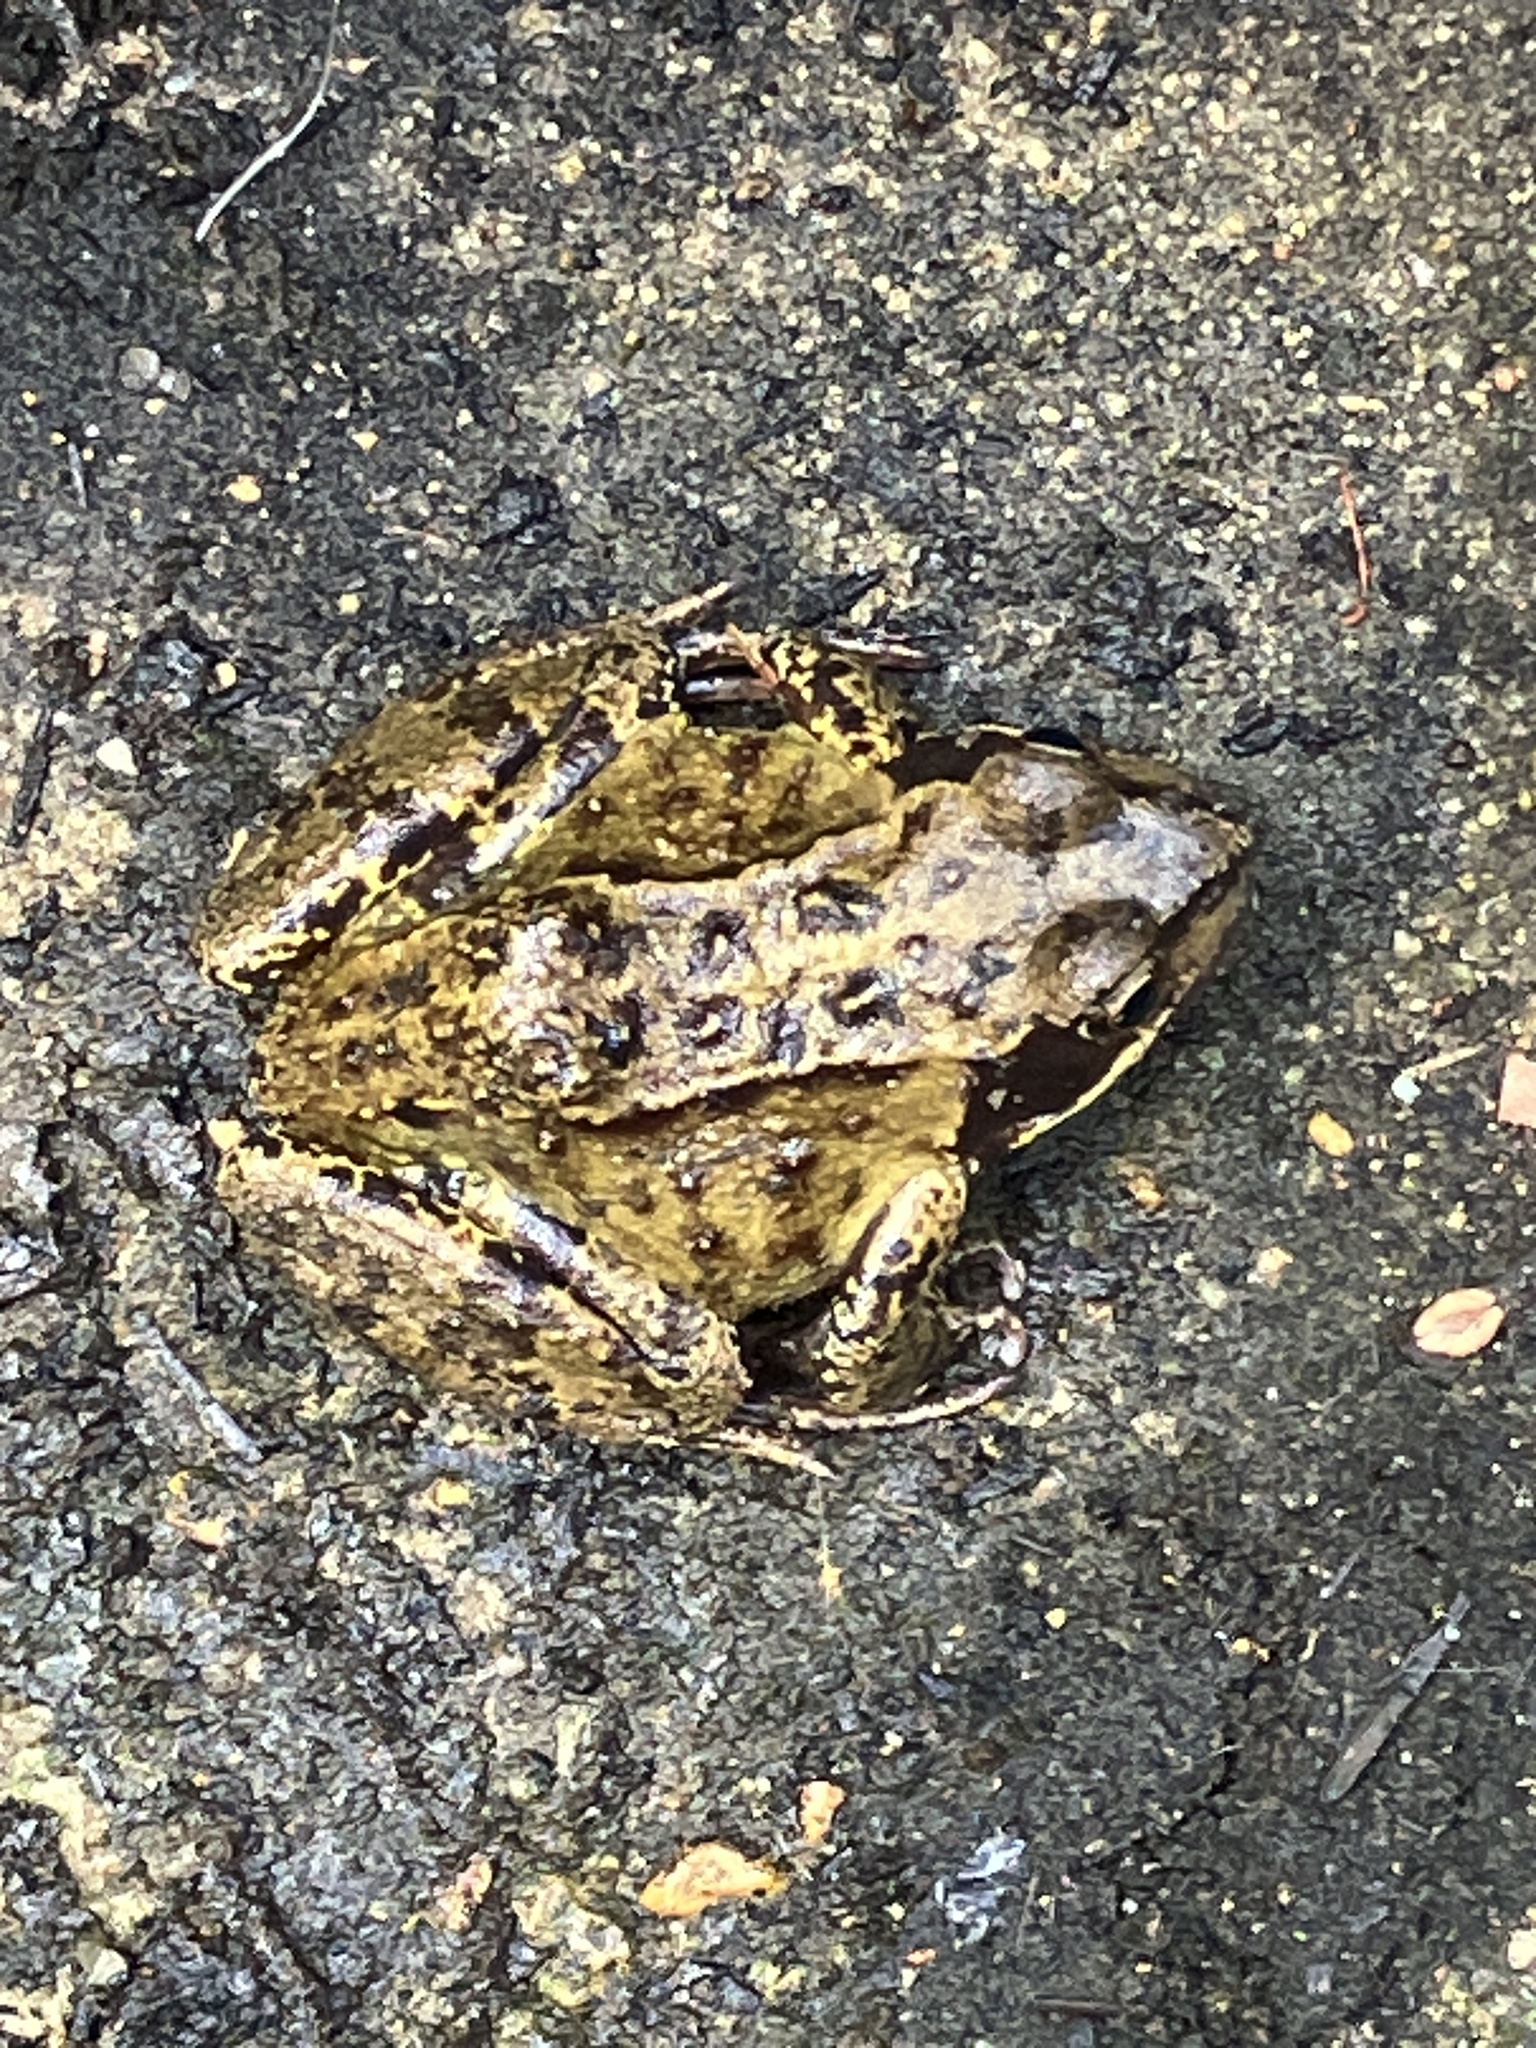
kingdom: Animalia
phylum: Chordata
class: Amphibia
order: Anura
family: Ranidae
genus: Rana
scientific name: Rana temporaria
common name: Common frog
